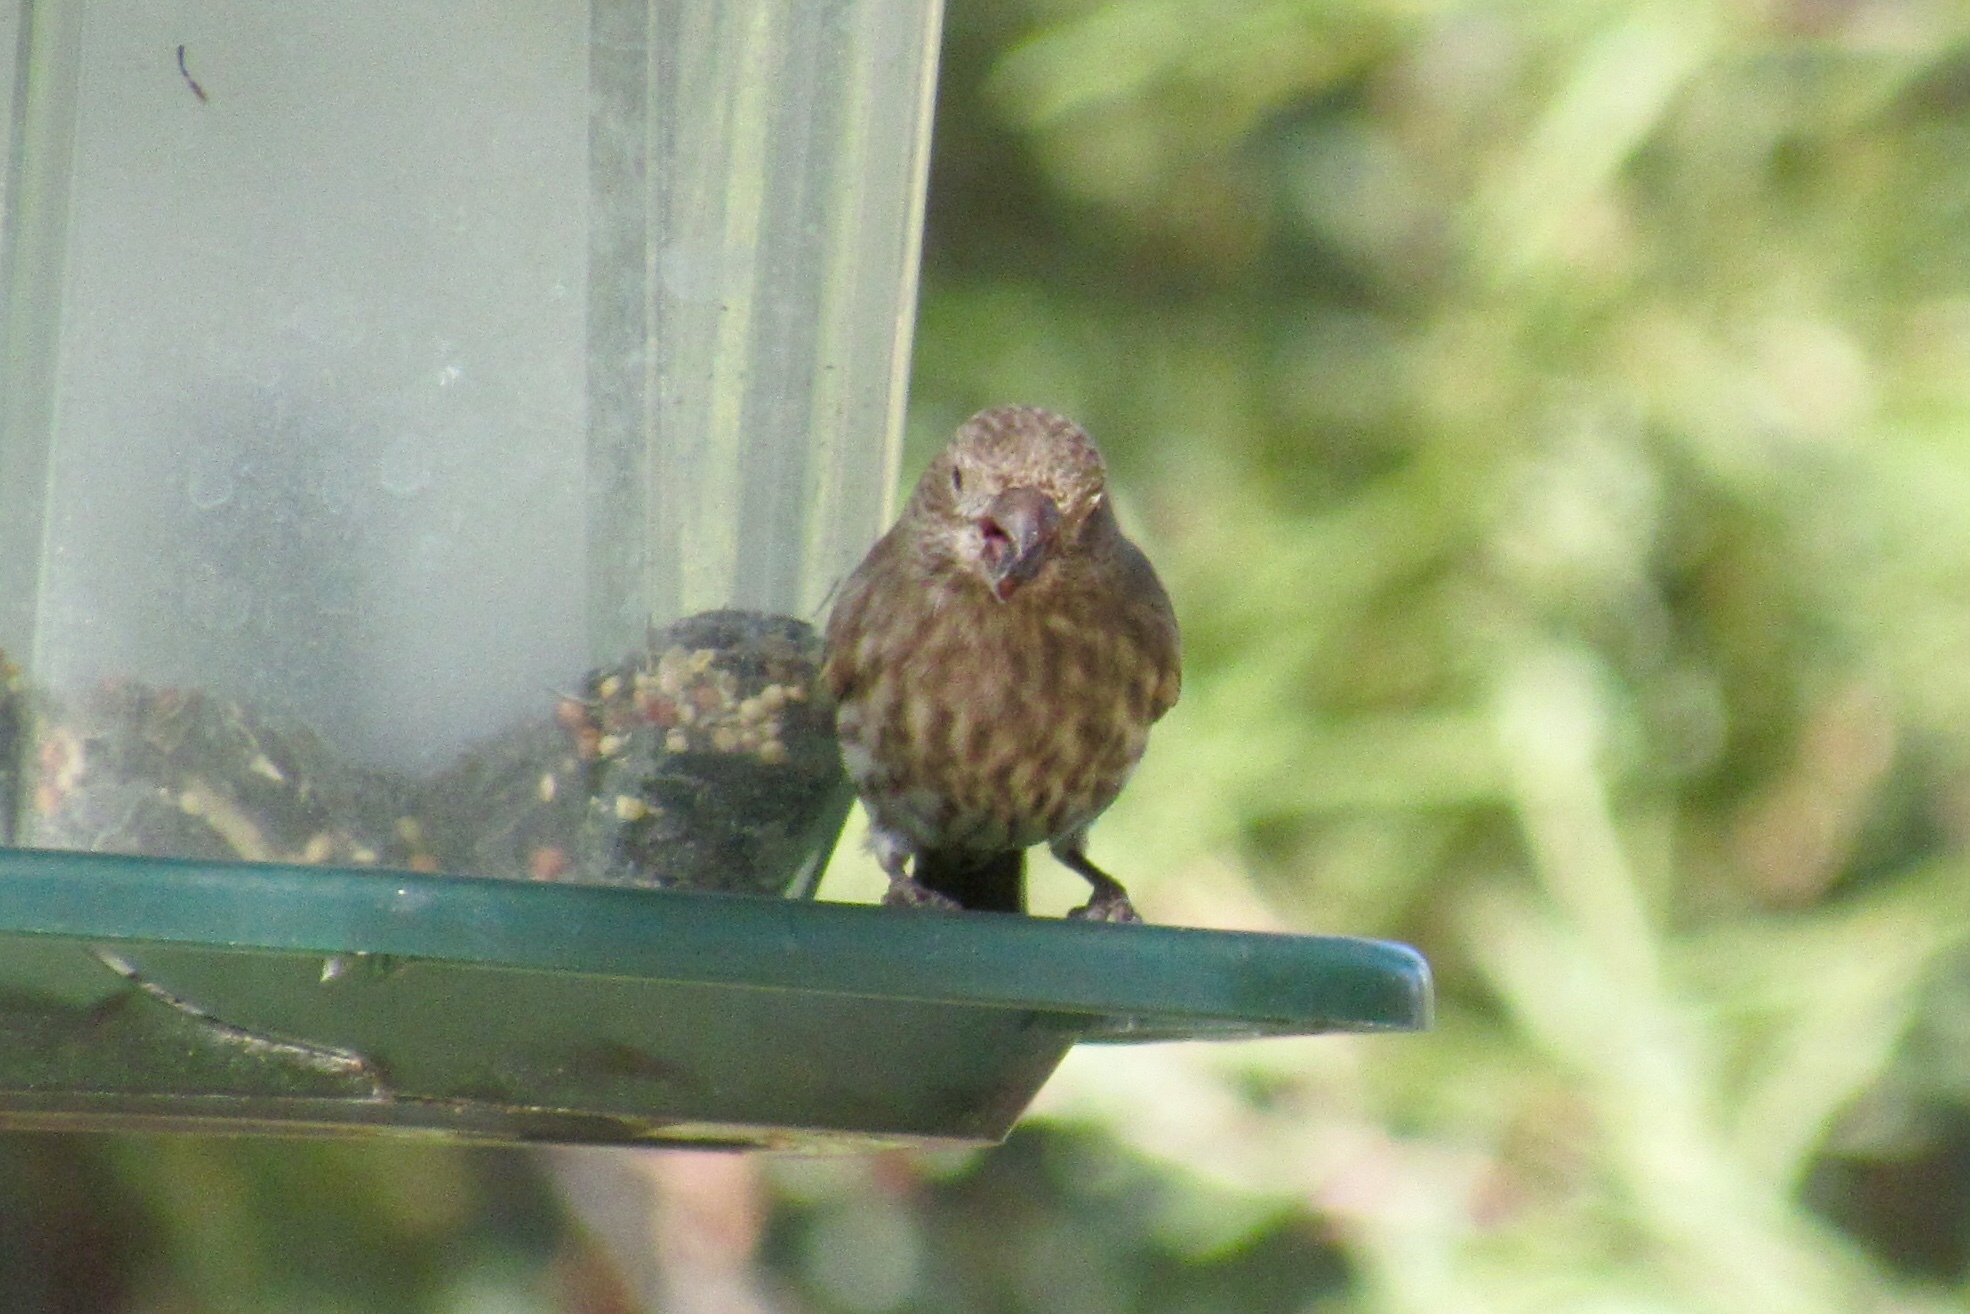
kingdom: Animalia
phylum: Chordata
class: Aves
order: Passeriformes
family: Fringillidae
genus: Haemorhous
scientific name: Haemorhous mexicanus
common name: House finch
